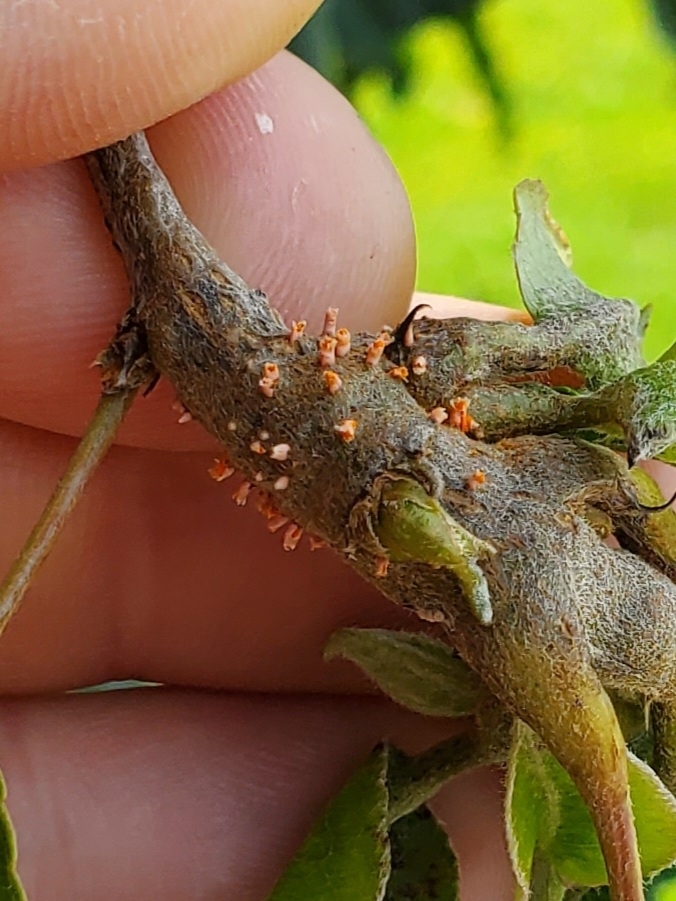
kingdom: Fungi
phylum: Basidiomycota
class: Pucciniomycetes
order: Pucciniales
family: Gymnosporangiaceae
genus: Gymnosporangium
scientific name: Gymnosporangium clavipes
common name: Quince rust
